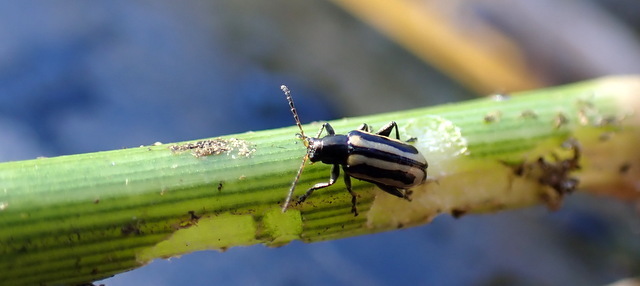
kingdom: Animalia
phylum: Arthropoda
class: Insecta
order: Coleoptera
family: Chrysomelidae
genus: Agasicles
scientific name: Agasicles hygrophila
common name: Alligatorweed flea beetle
